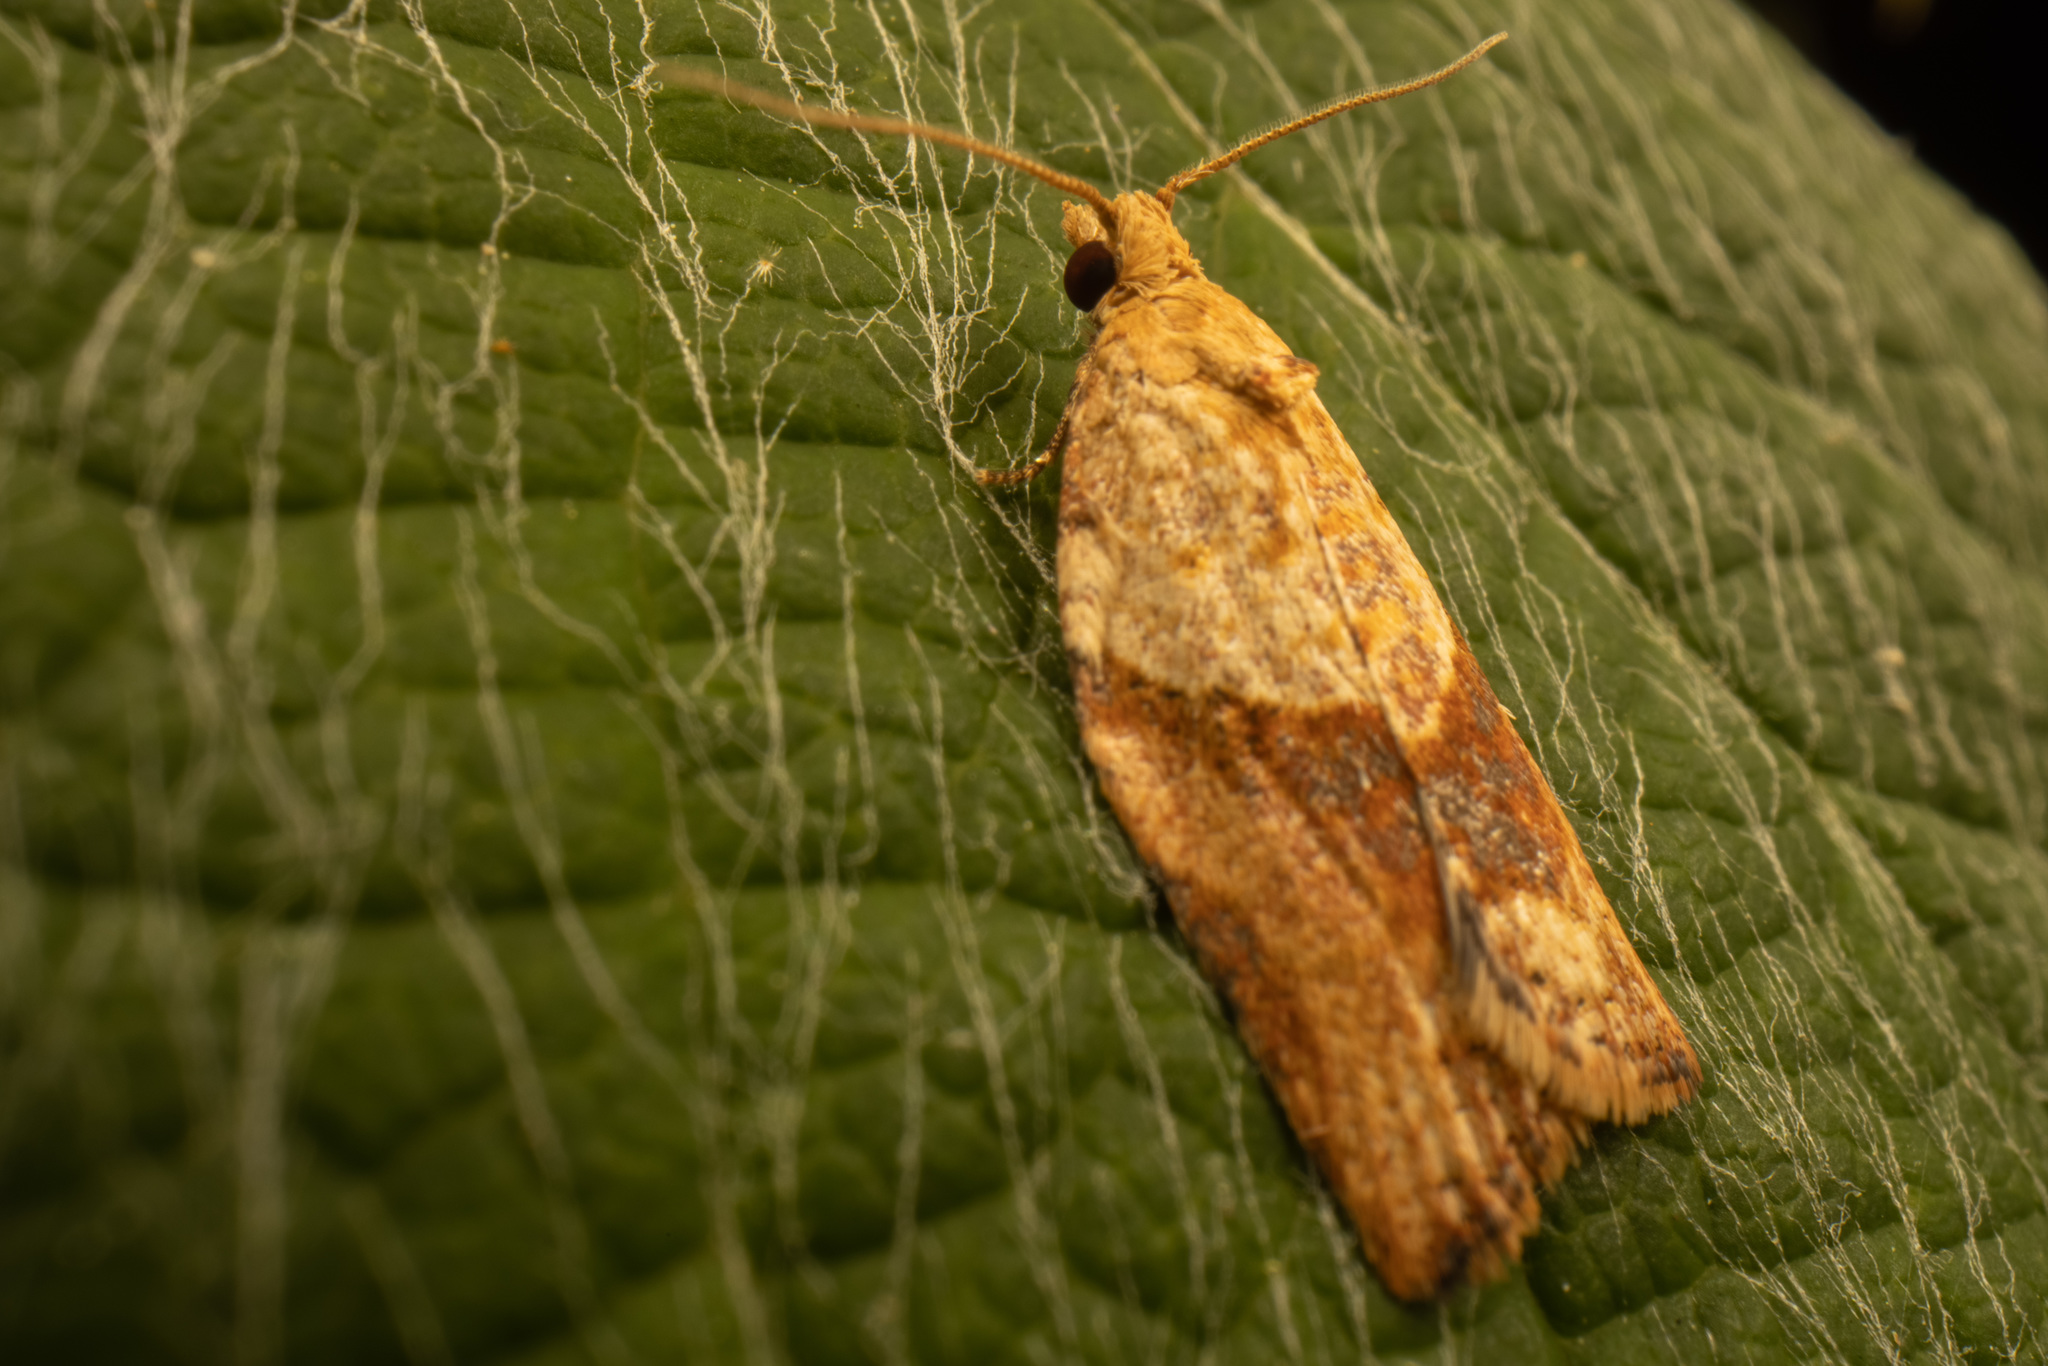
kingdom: Animalia
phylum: Arthropoda
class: Insecta
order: Lepidoptera
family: Tortricidae
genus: Epiphyas
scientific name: Epiphyas postvittana
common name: Light brown apple moth
